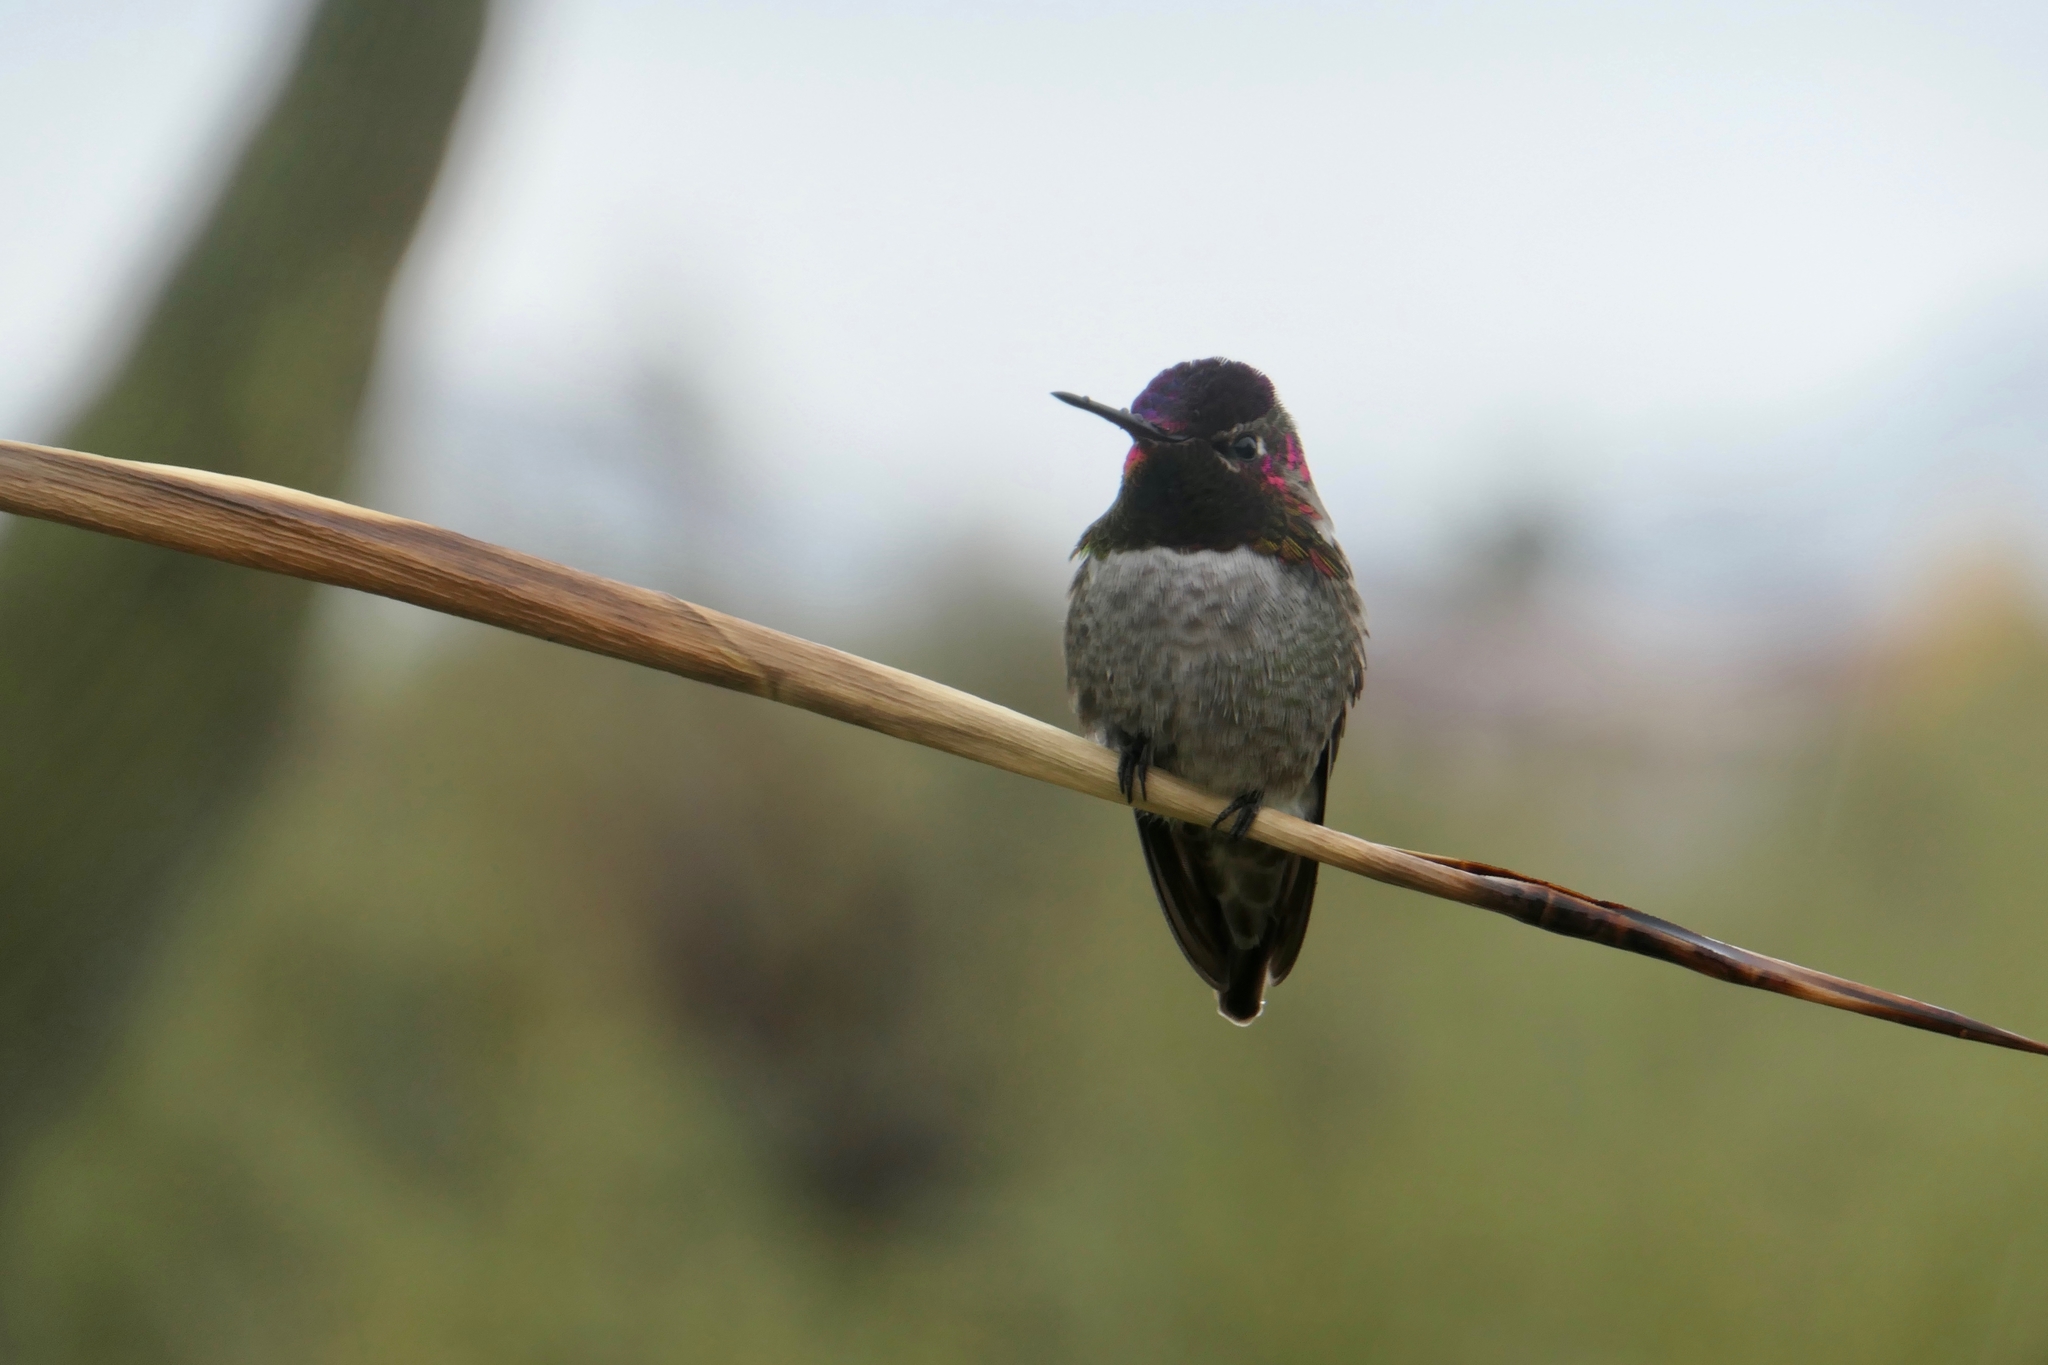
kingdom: Animalia
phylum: Chordata
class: Aves
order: Apodiformes
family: Trochilidae
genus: Calypte
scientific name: Calypte anna
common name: Anna's hummingbird
